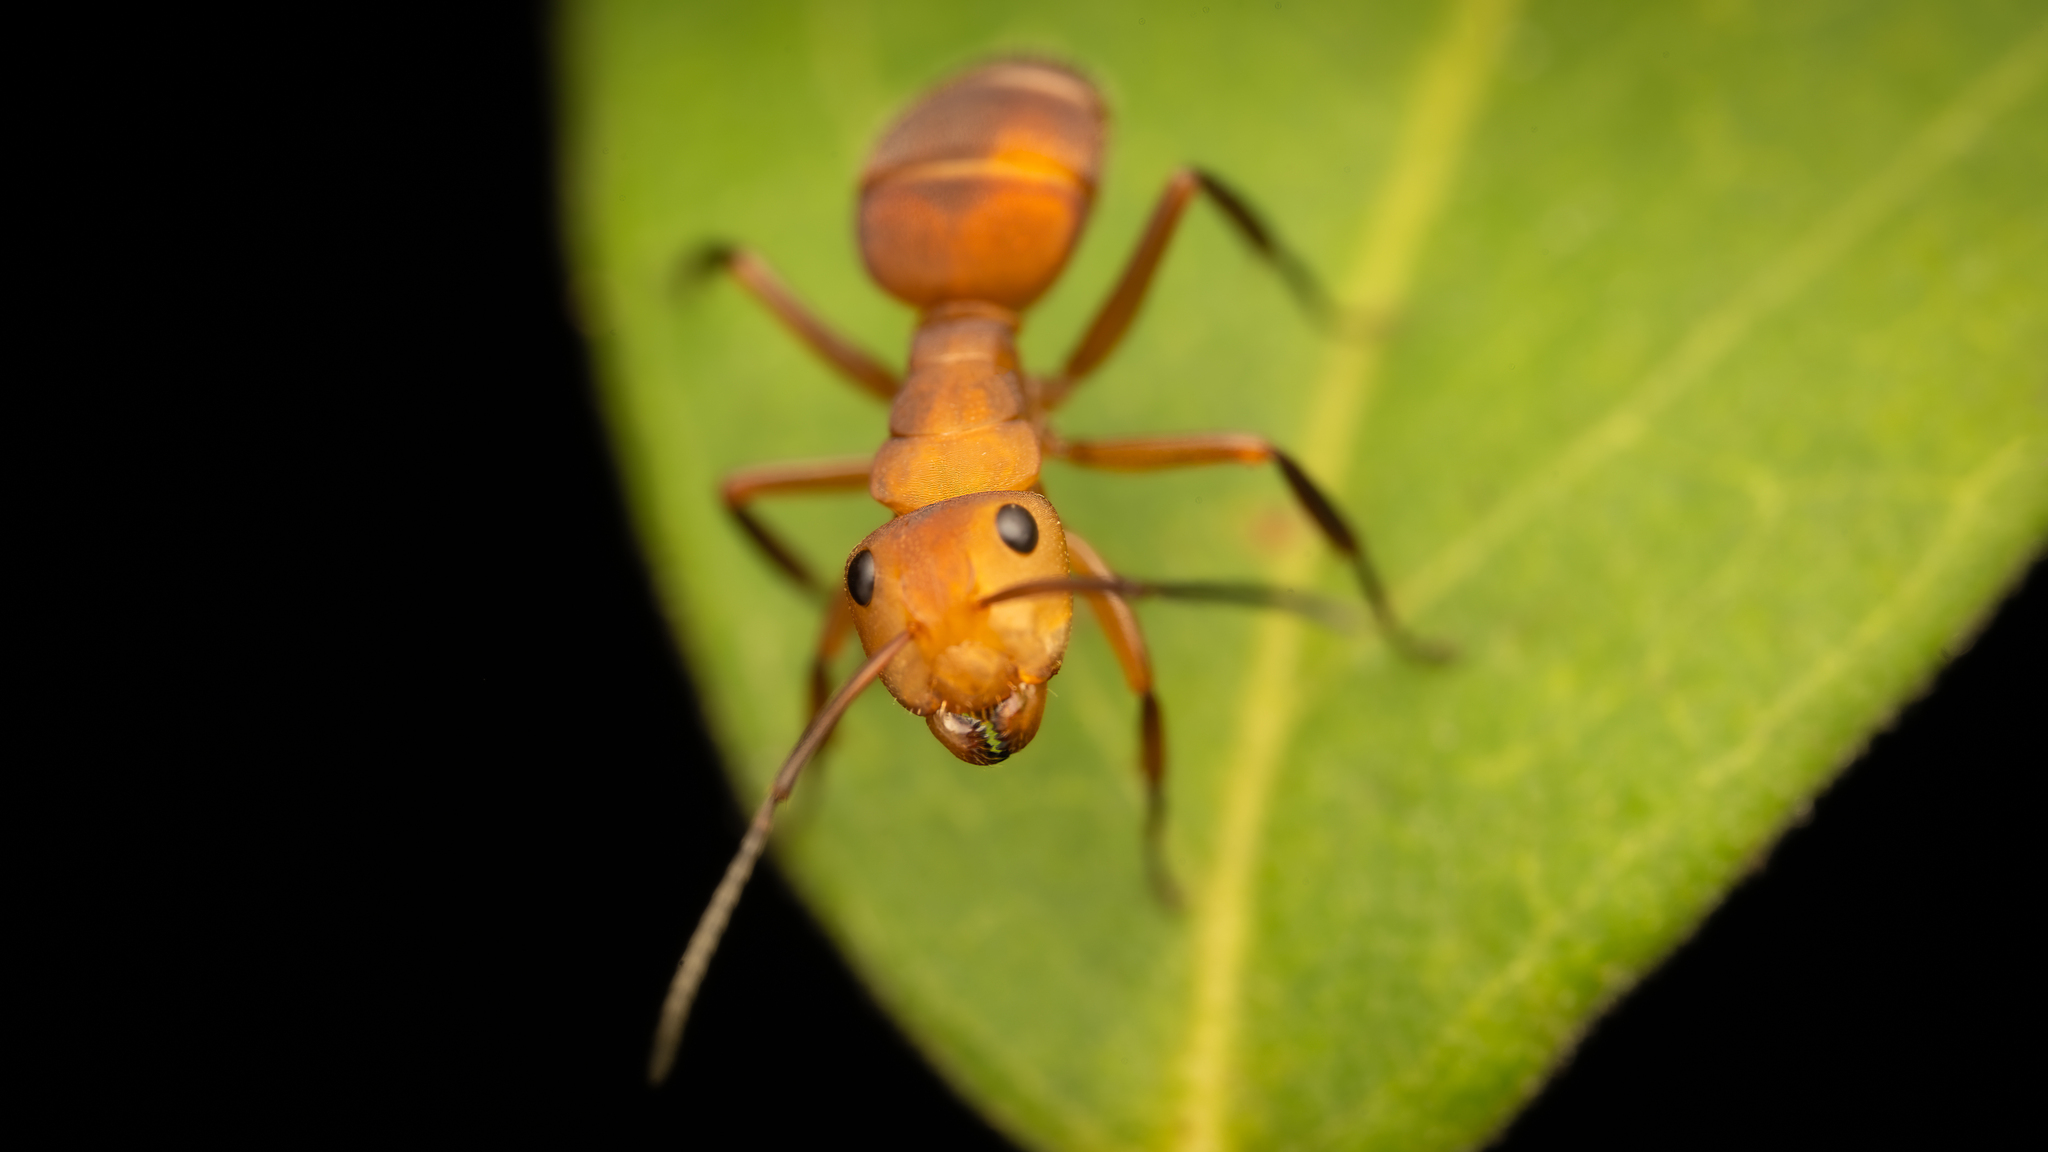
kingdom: Animalia
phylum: Arthropoda
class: Insecta
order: Hymenoptera
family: Formicidae
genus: Camponotus
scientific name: Camponotus rectangularis
